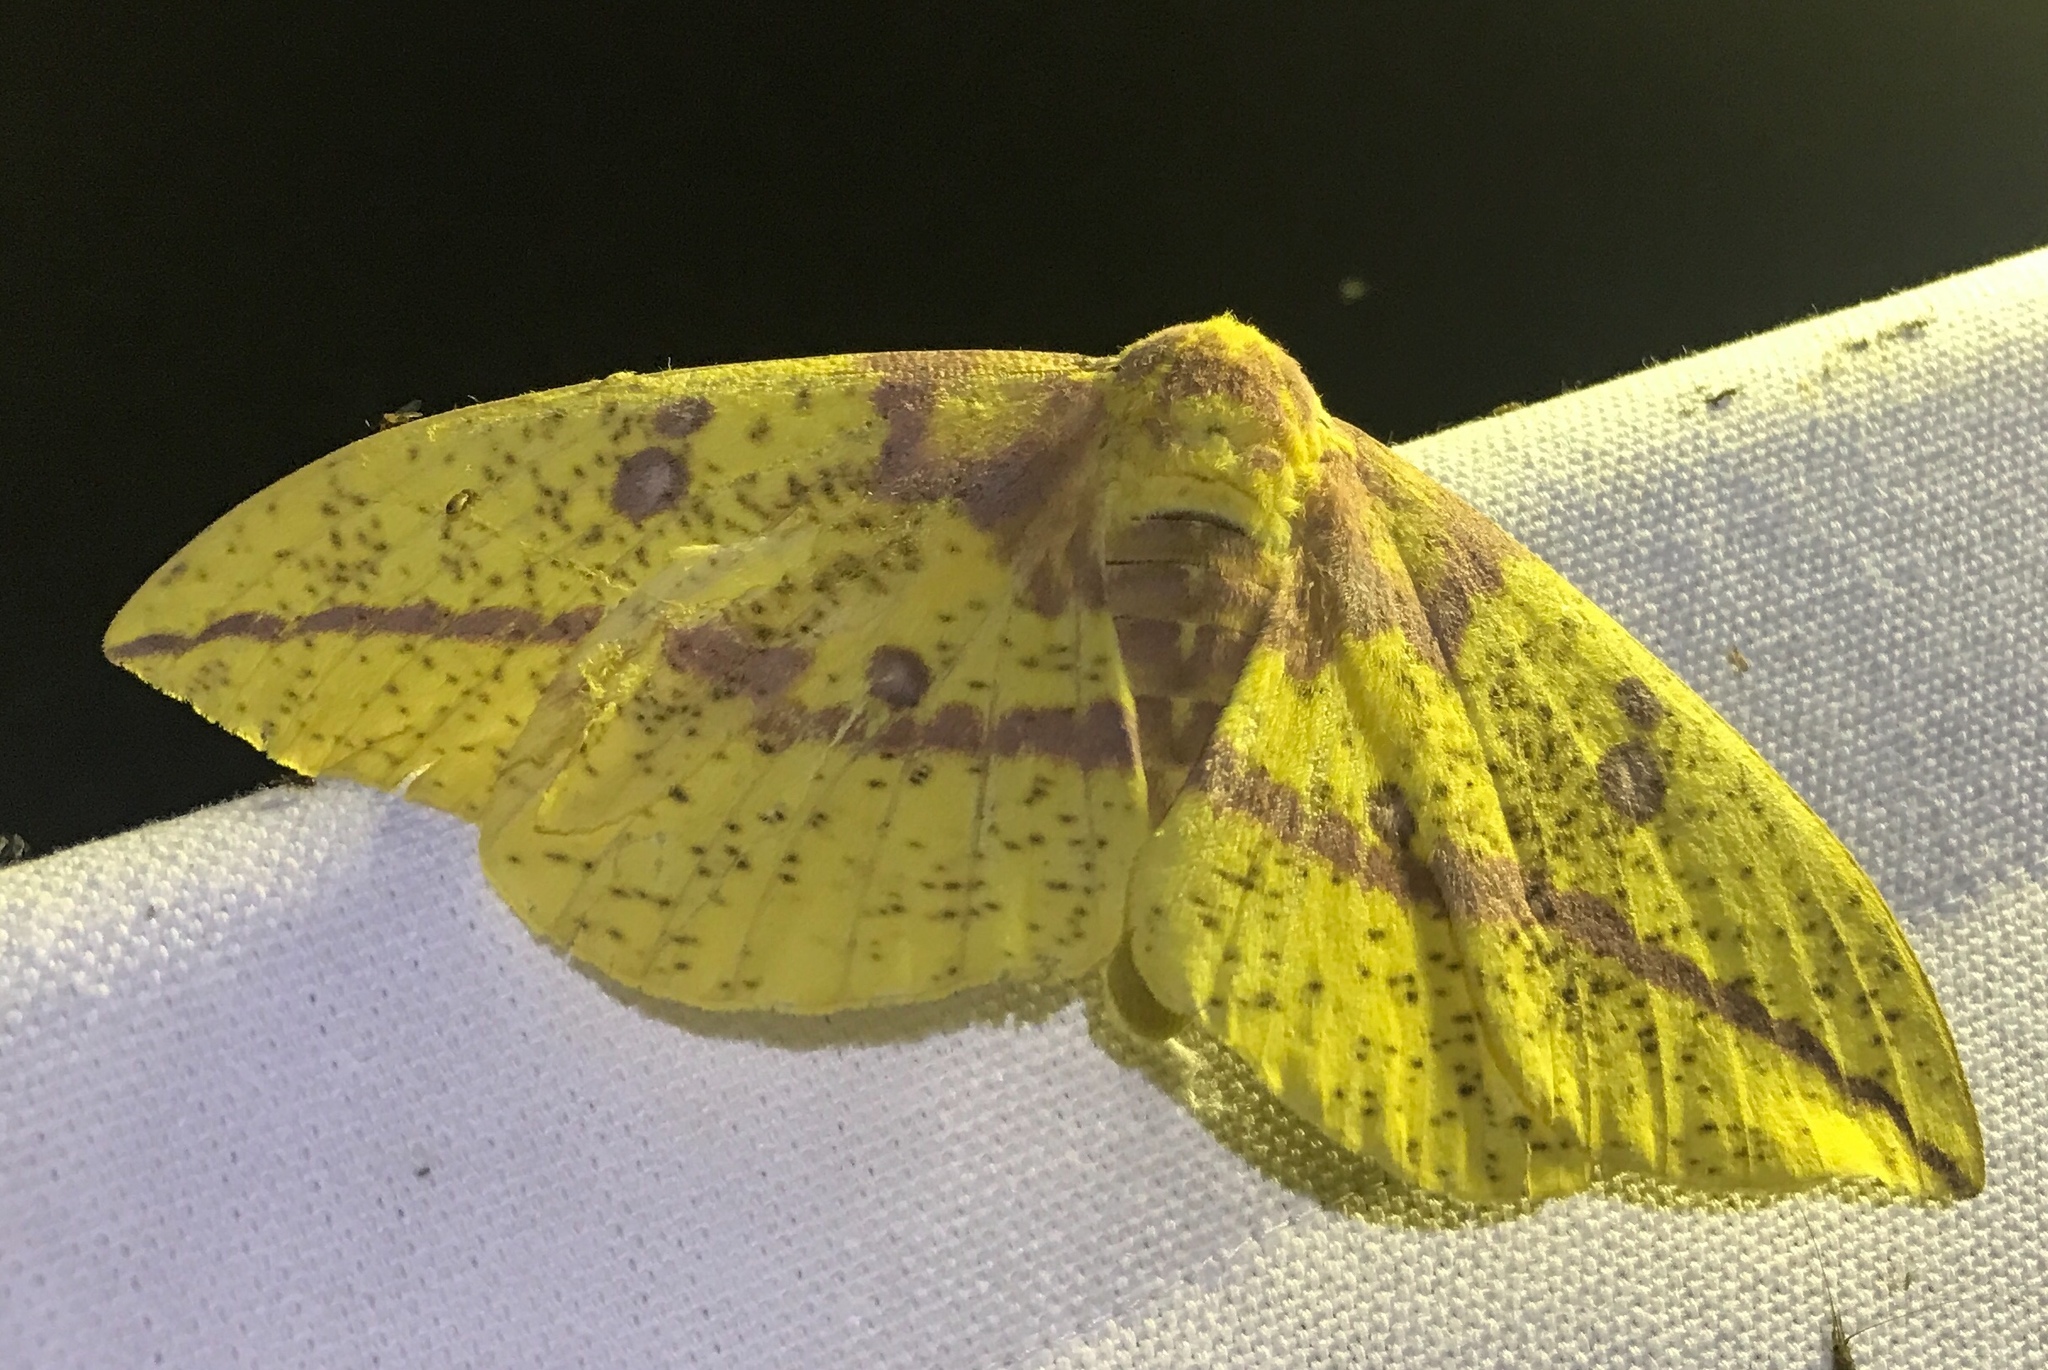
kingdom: Animalia
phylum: Arthropoda
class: Insecta
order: Lepidoptera
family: Saturniidae
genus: Eacles
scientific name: Eacles imperialis
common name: Imperial moth
